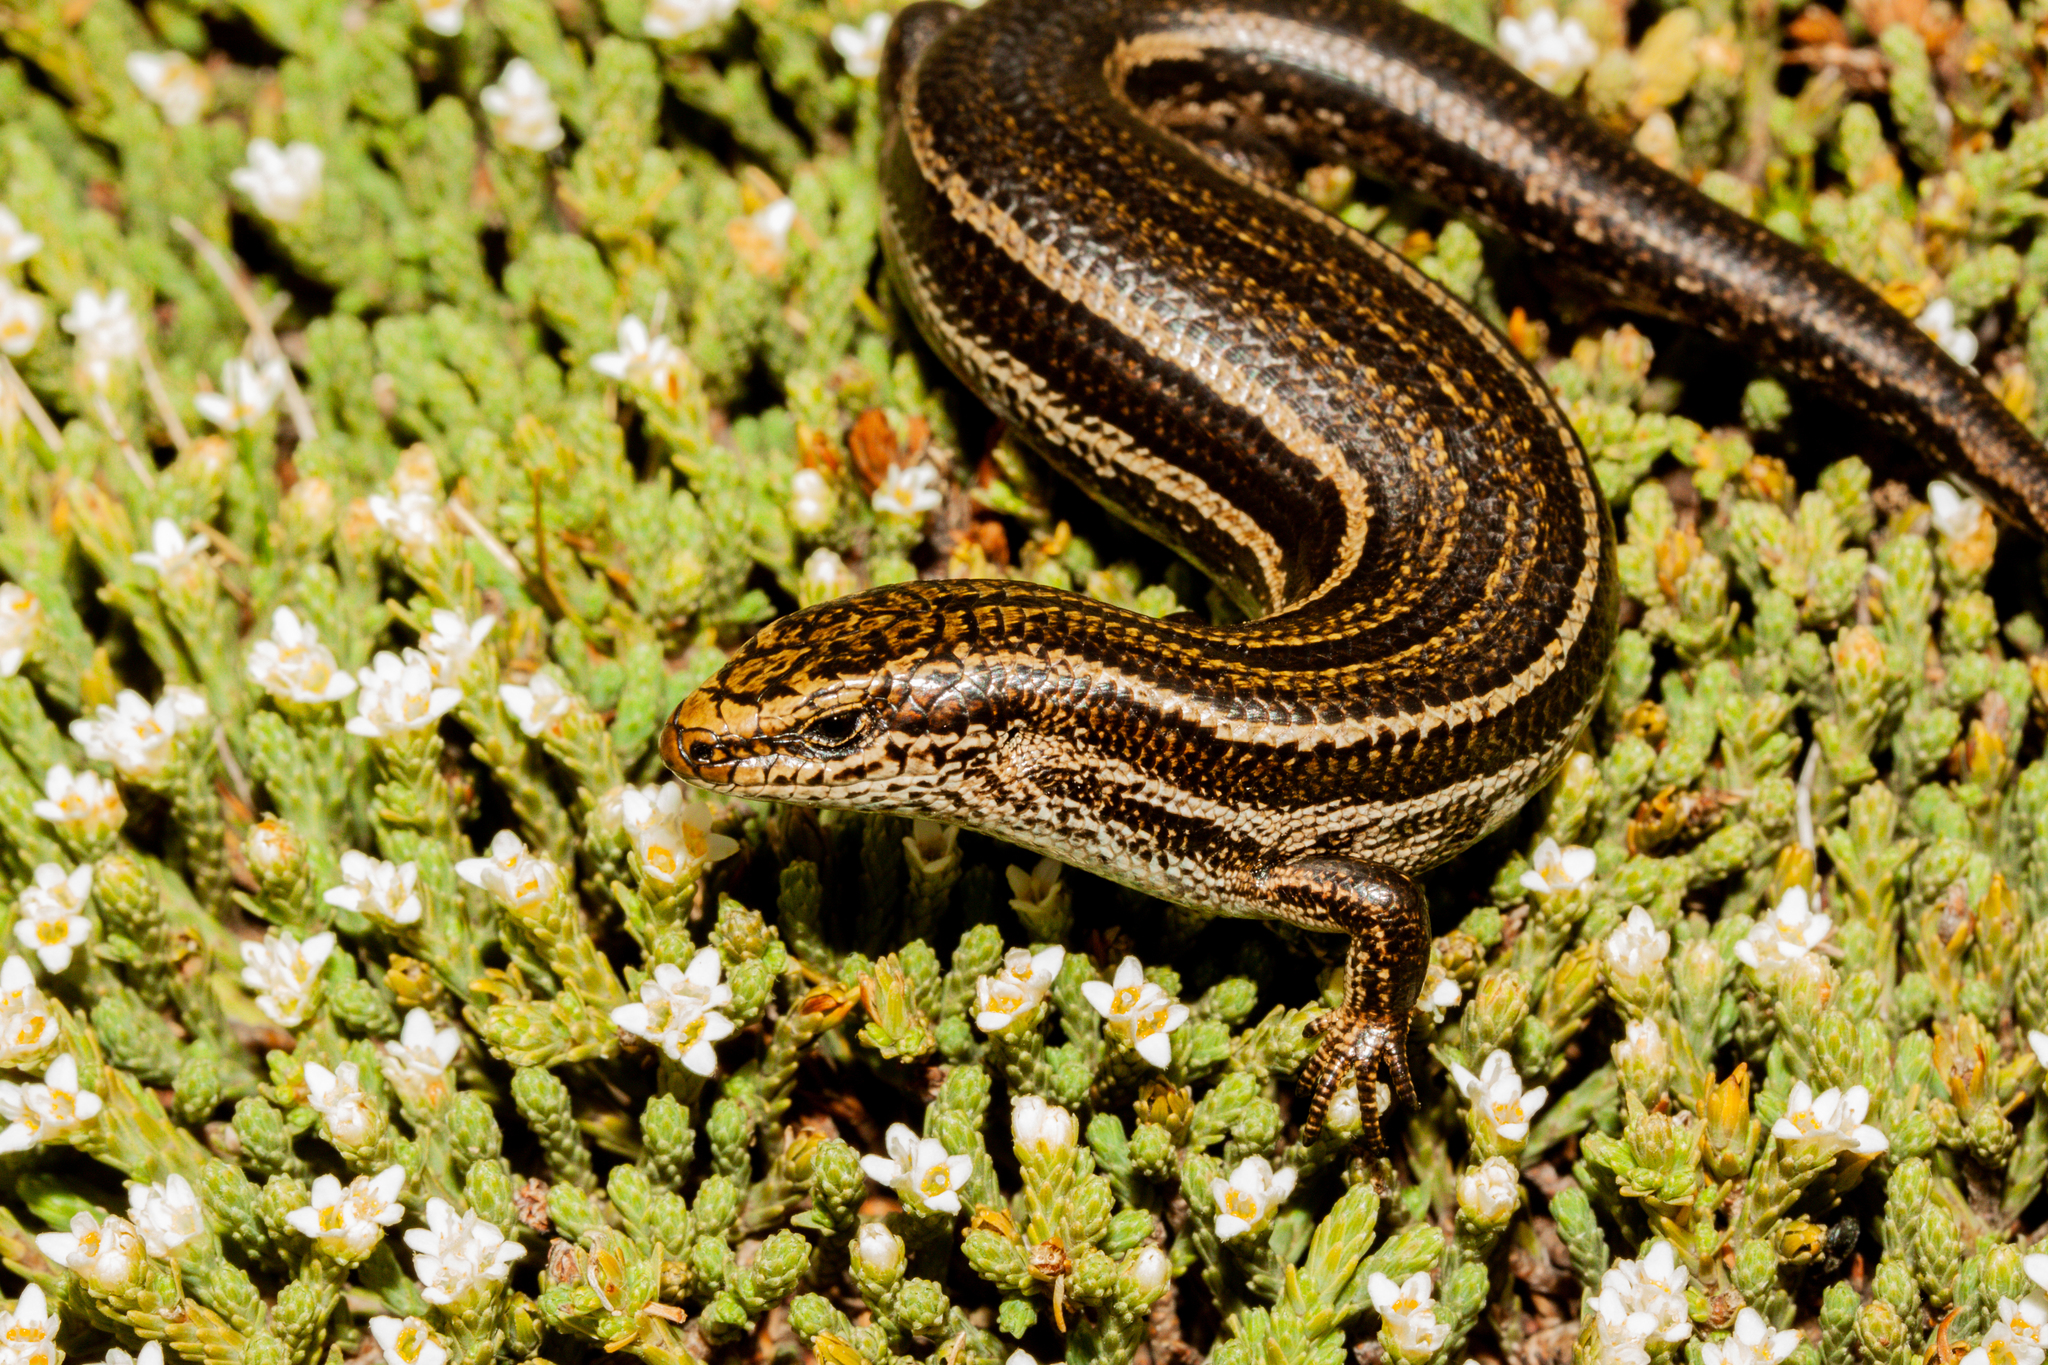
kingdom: Animalia
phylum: Chordata
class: Squamata
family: Scincidae
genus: Oligosoma
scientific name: Oligosoma toka
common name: Nevis skink
